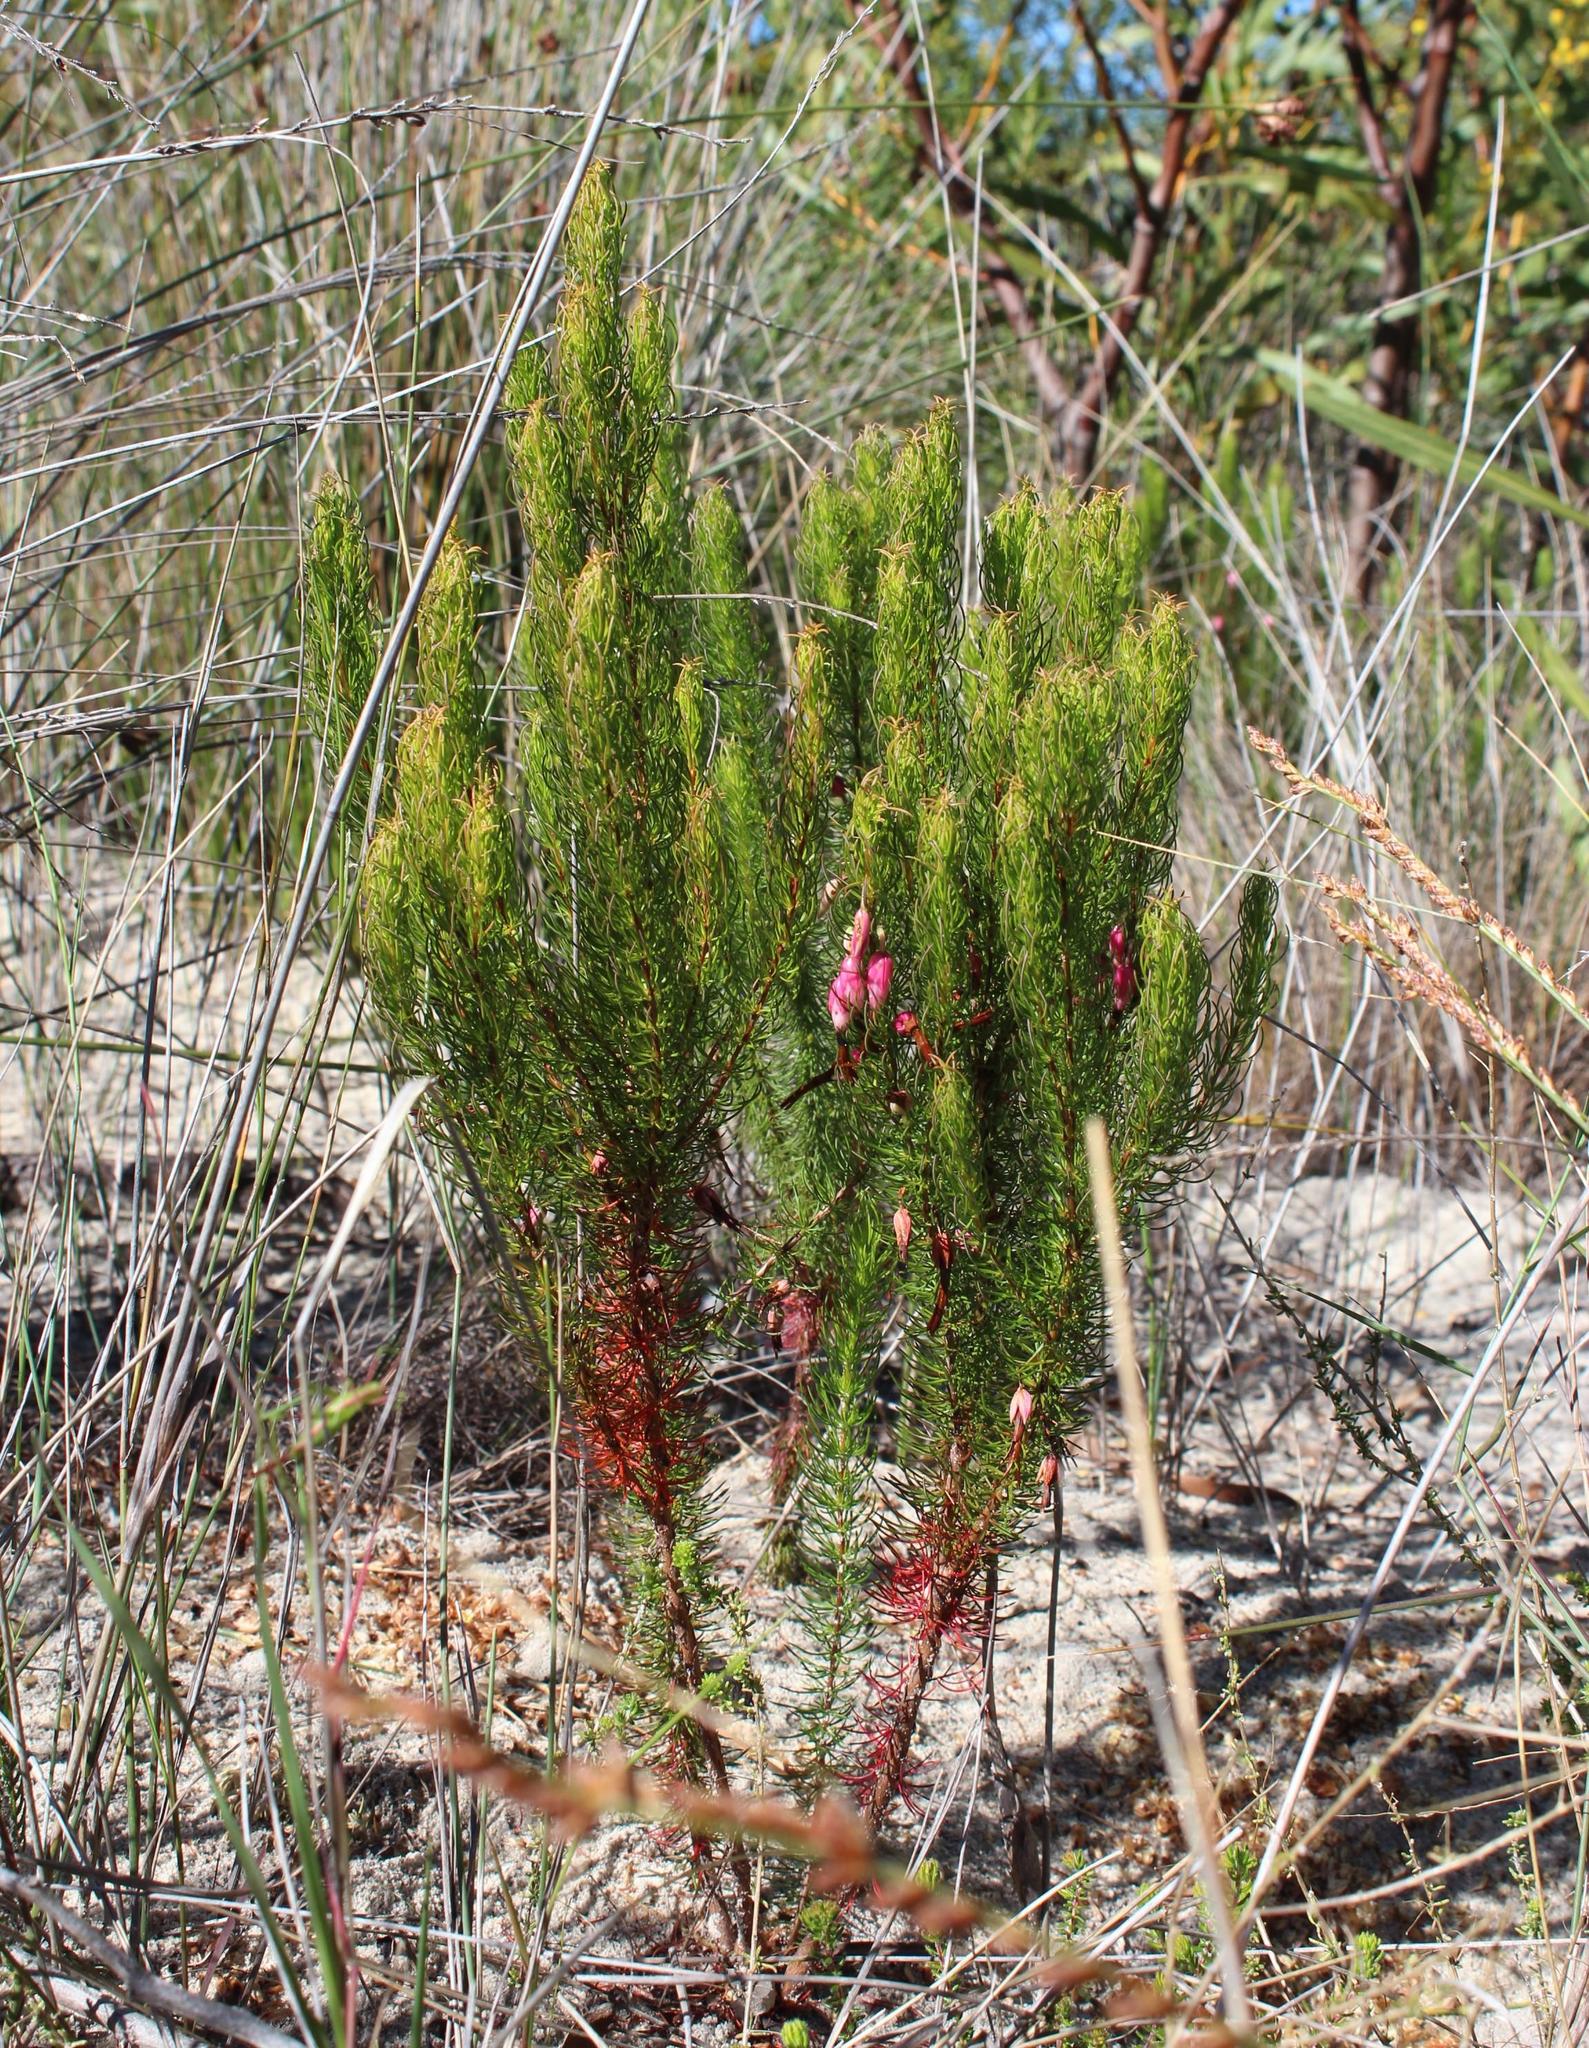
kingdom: Plantae
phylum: Tracheophyta
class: Magnoliopsida
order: Ericales
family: Ericaceae
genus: Erica
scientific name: Erica plukenetii
